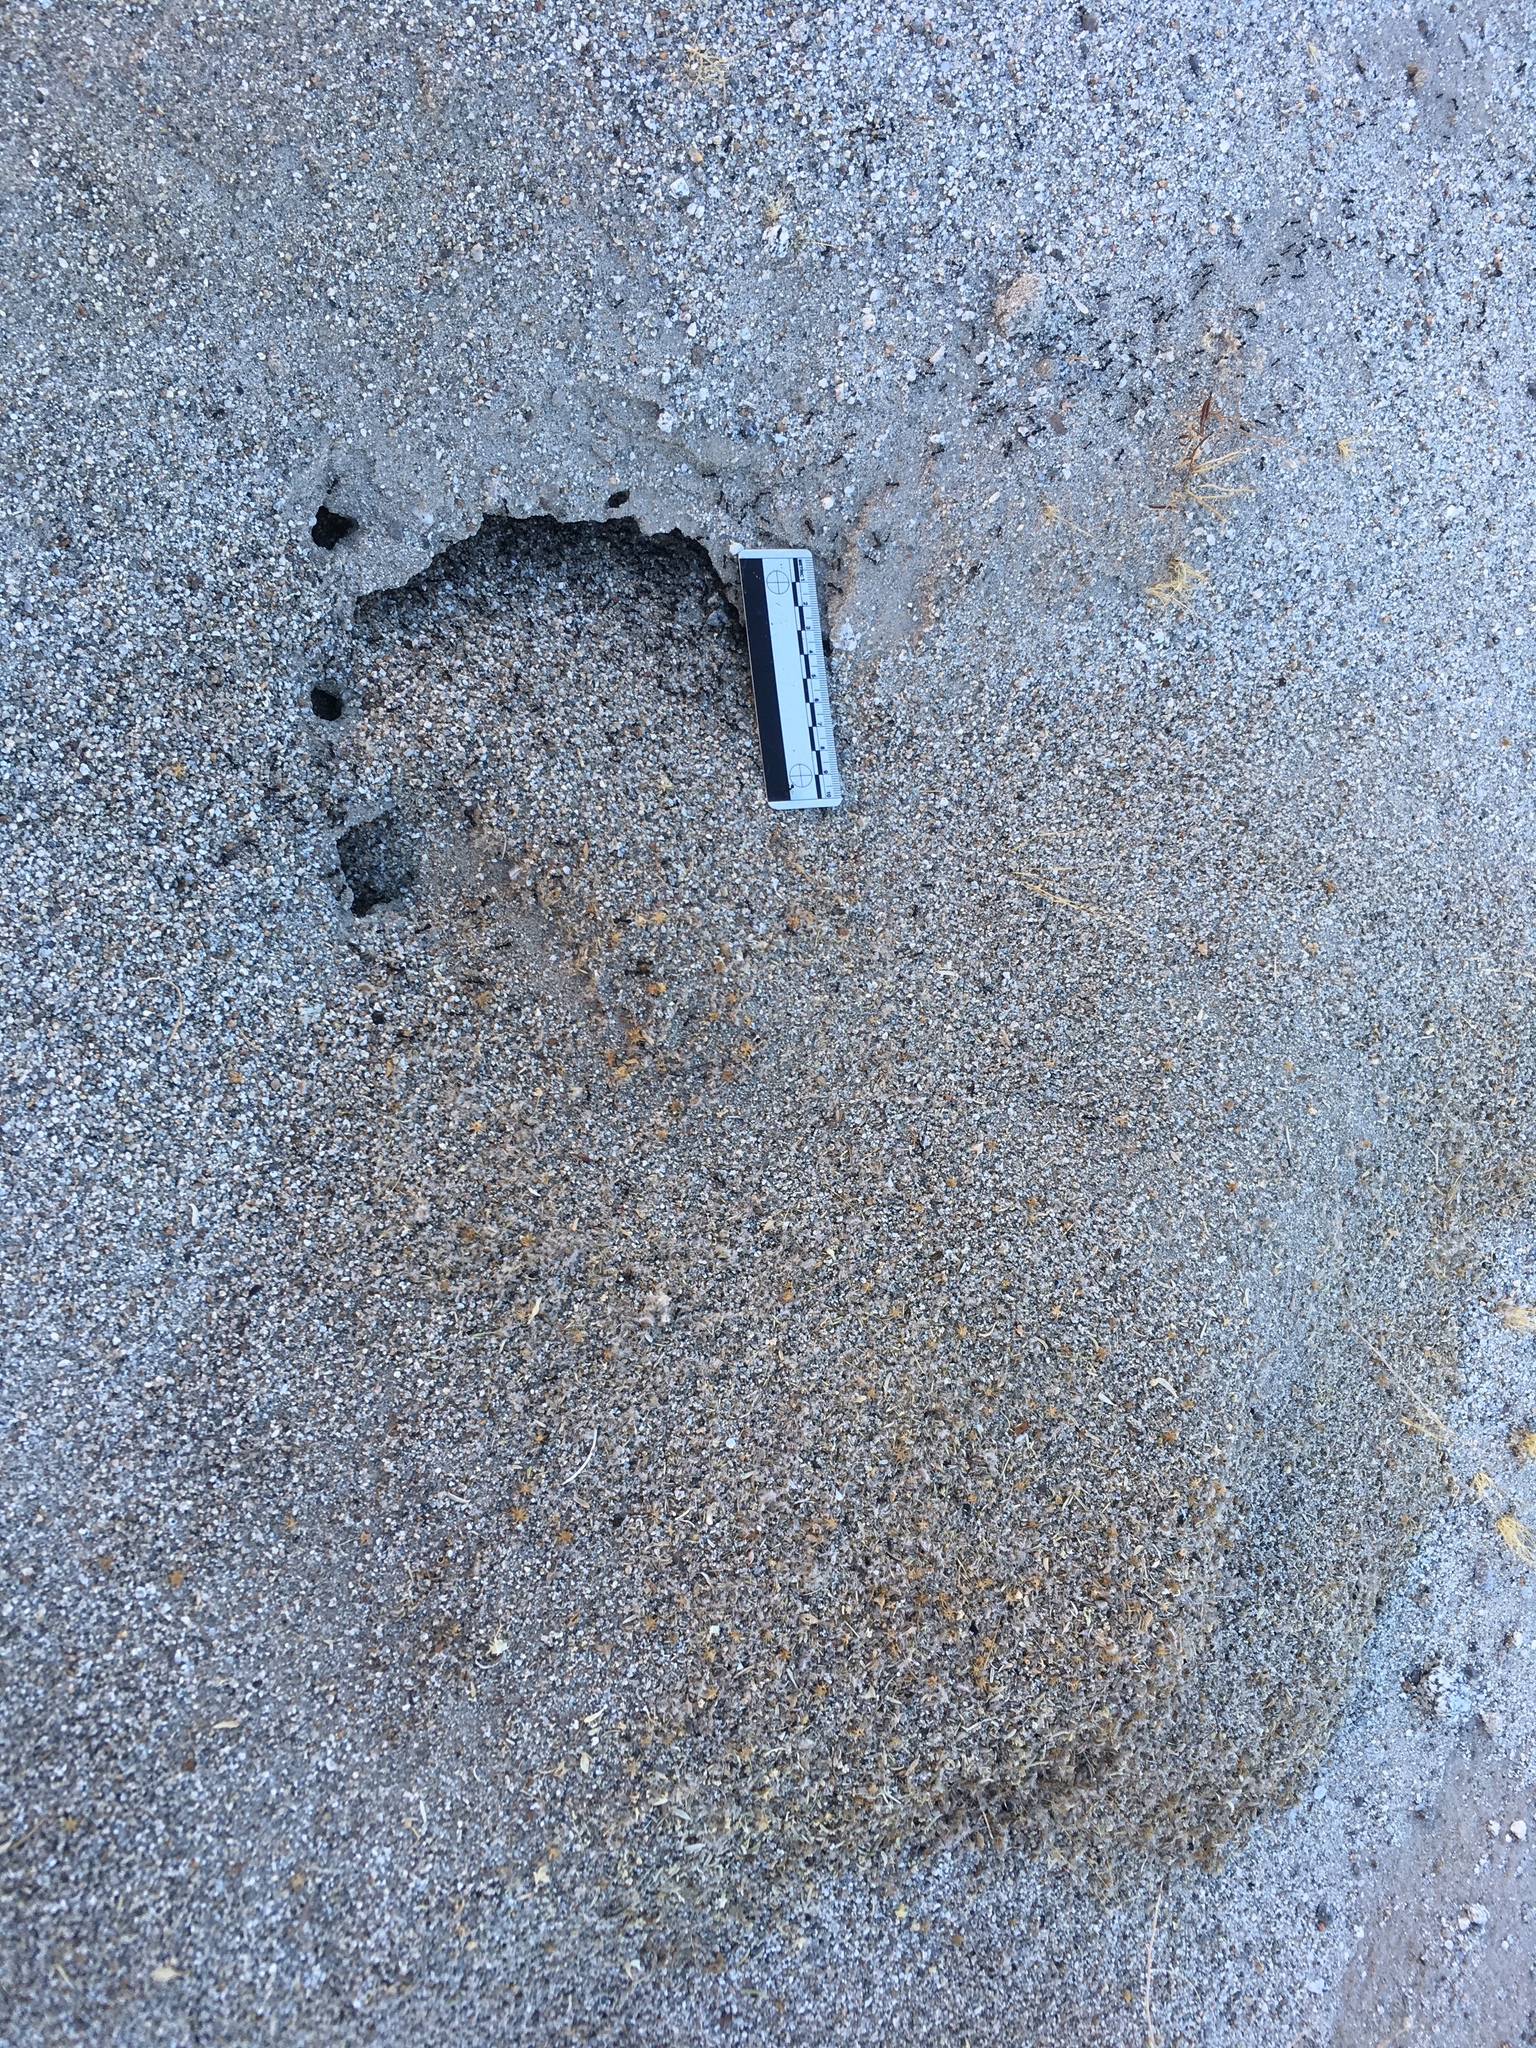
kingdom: Animalia
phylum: Arthropoda
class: Insecta
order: Hymenoptera
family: Formicidae
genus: Messor
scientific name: Messor pergandei
